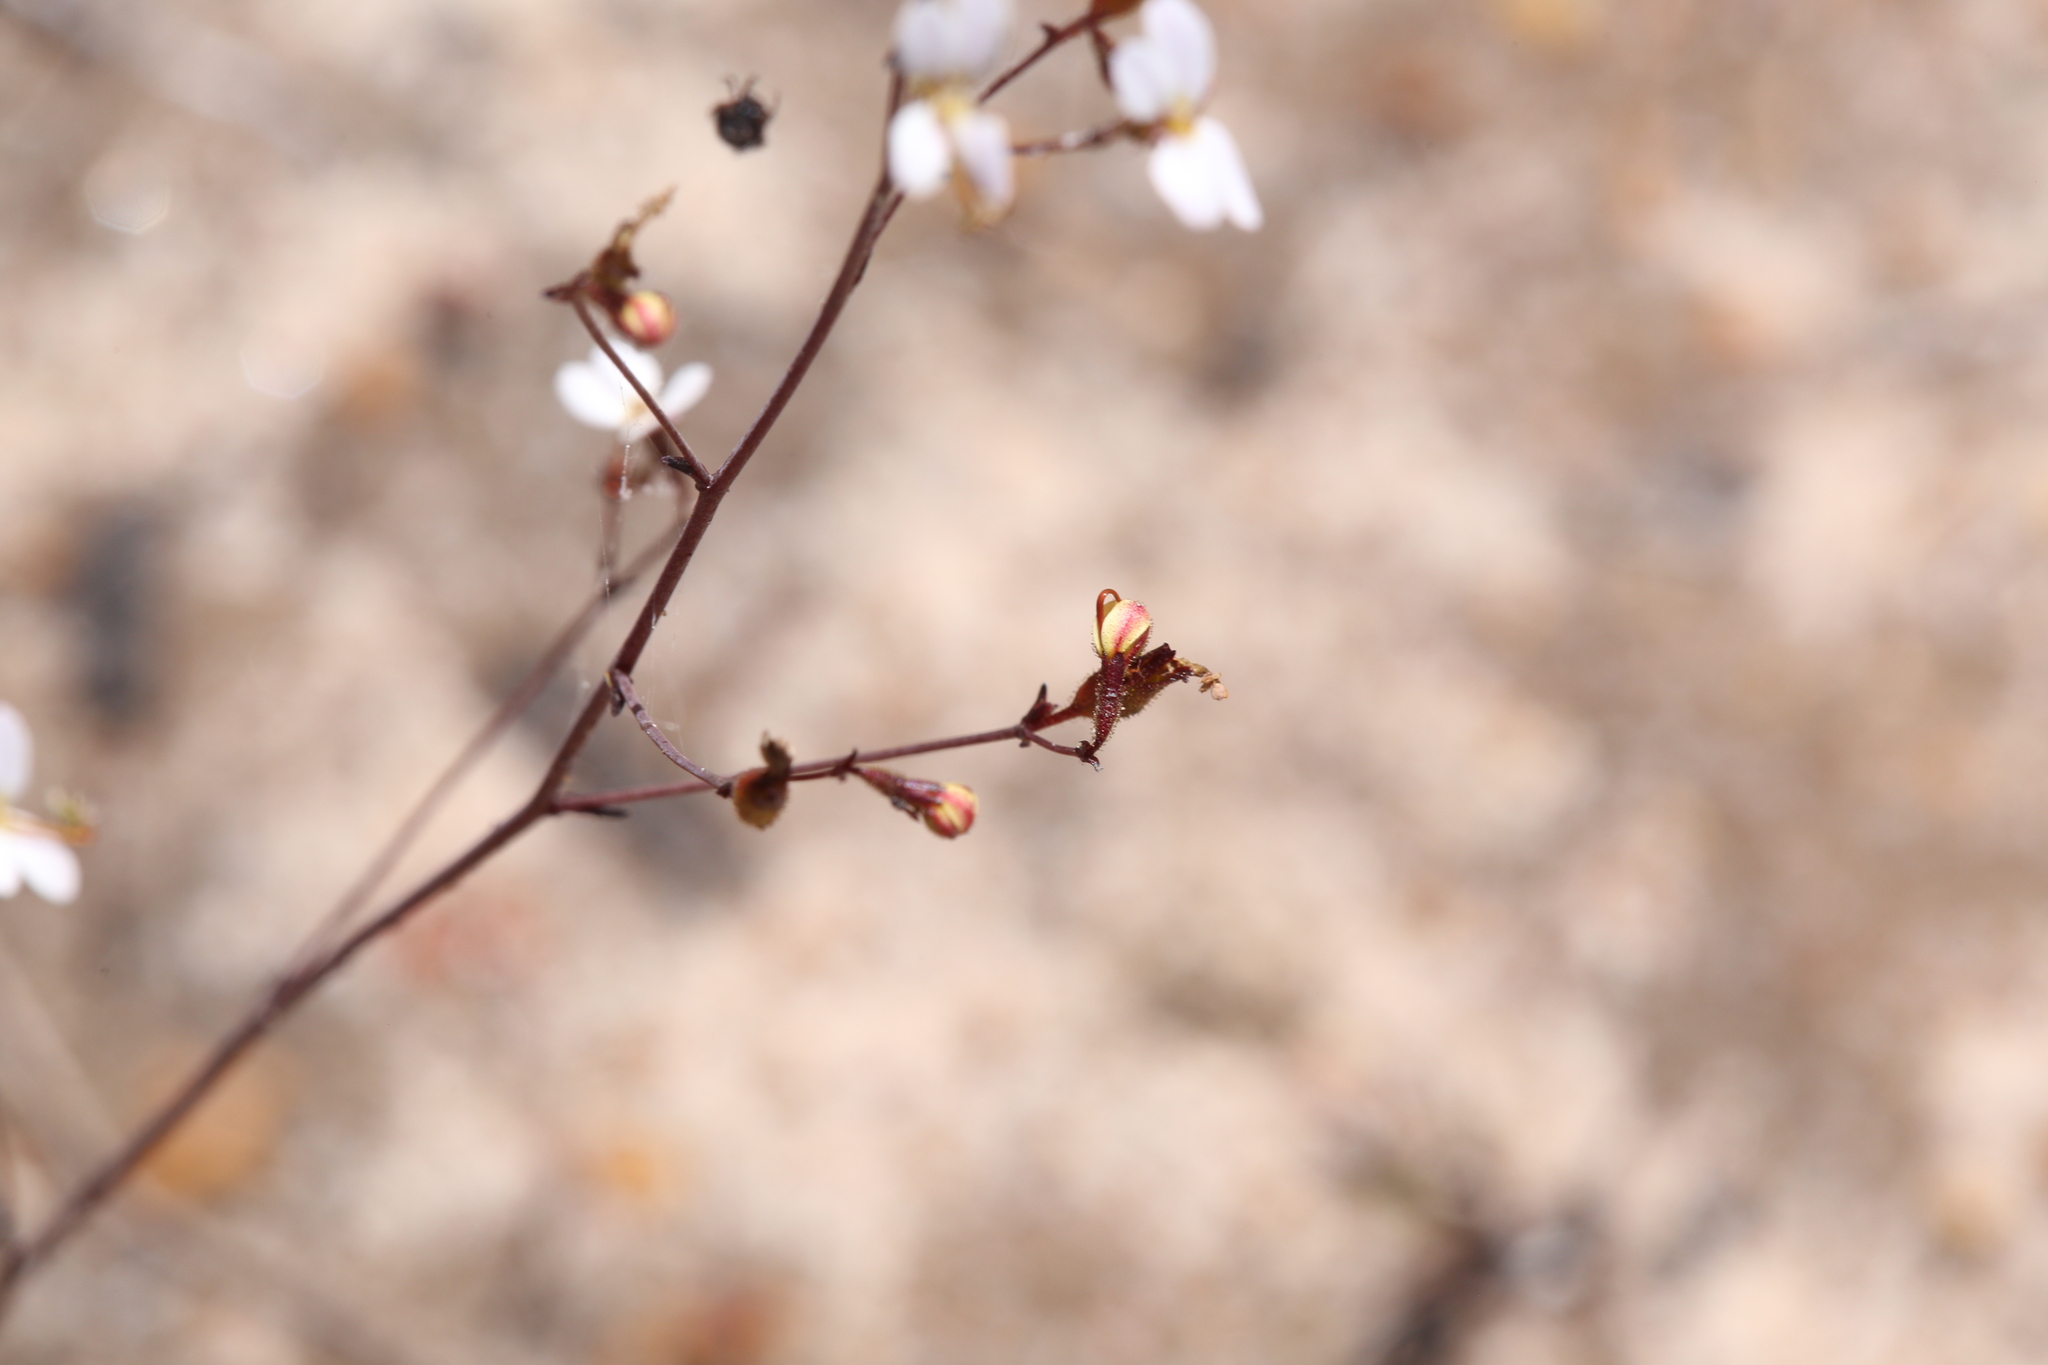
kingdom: Plantae
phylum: Tracheophyta
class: Magnoliopsida
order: Asterales
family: Stylidiaceae
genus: Stylidium
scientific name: Stylidium caespitosum
